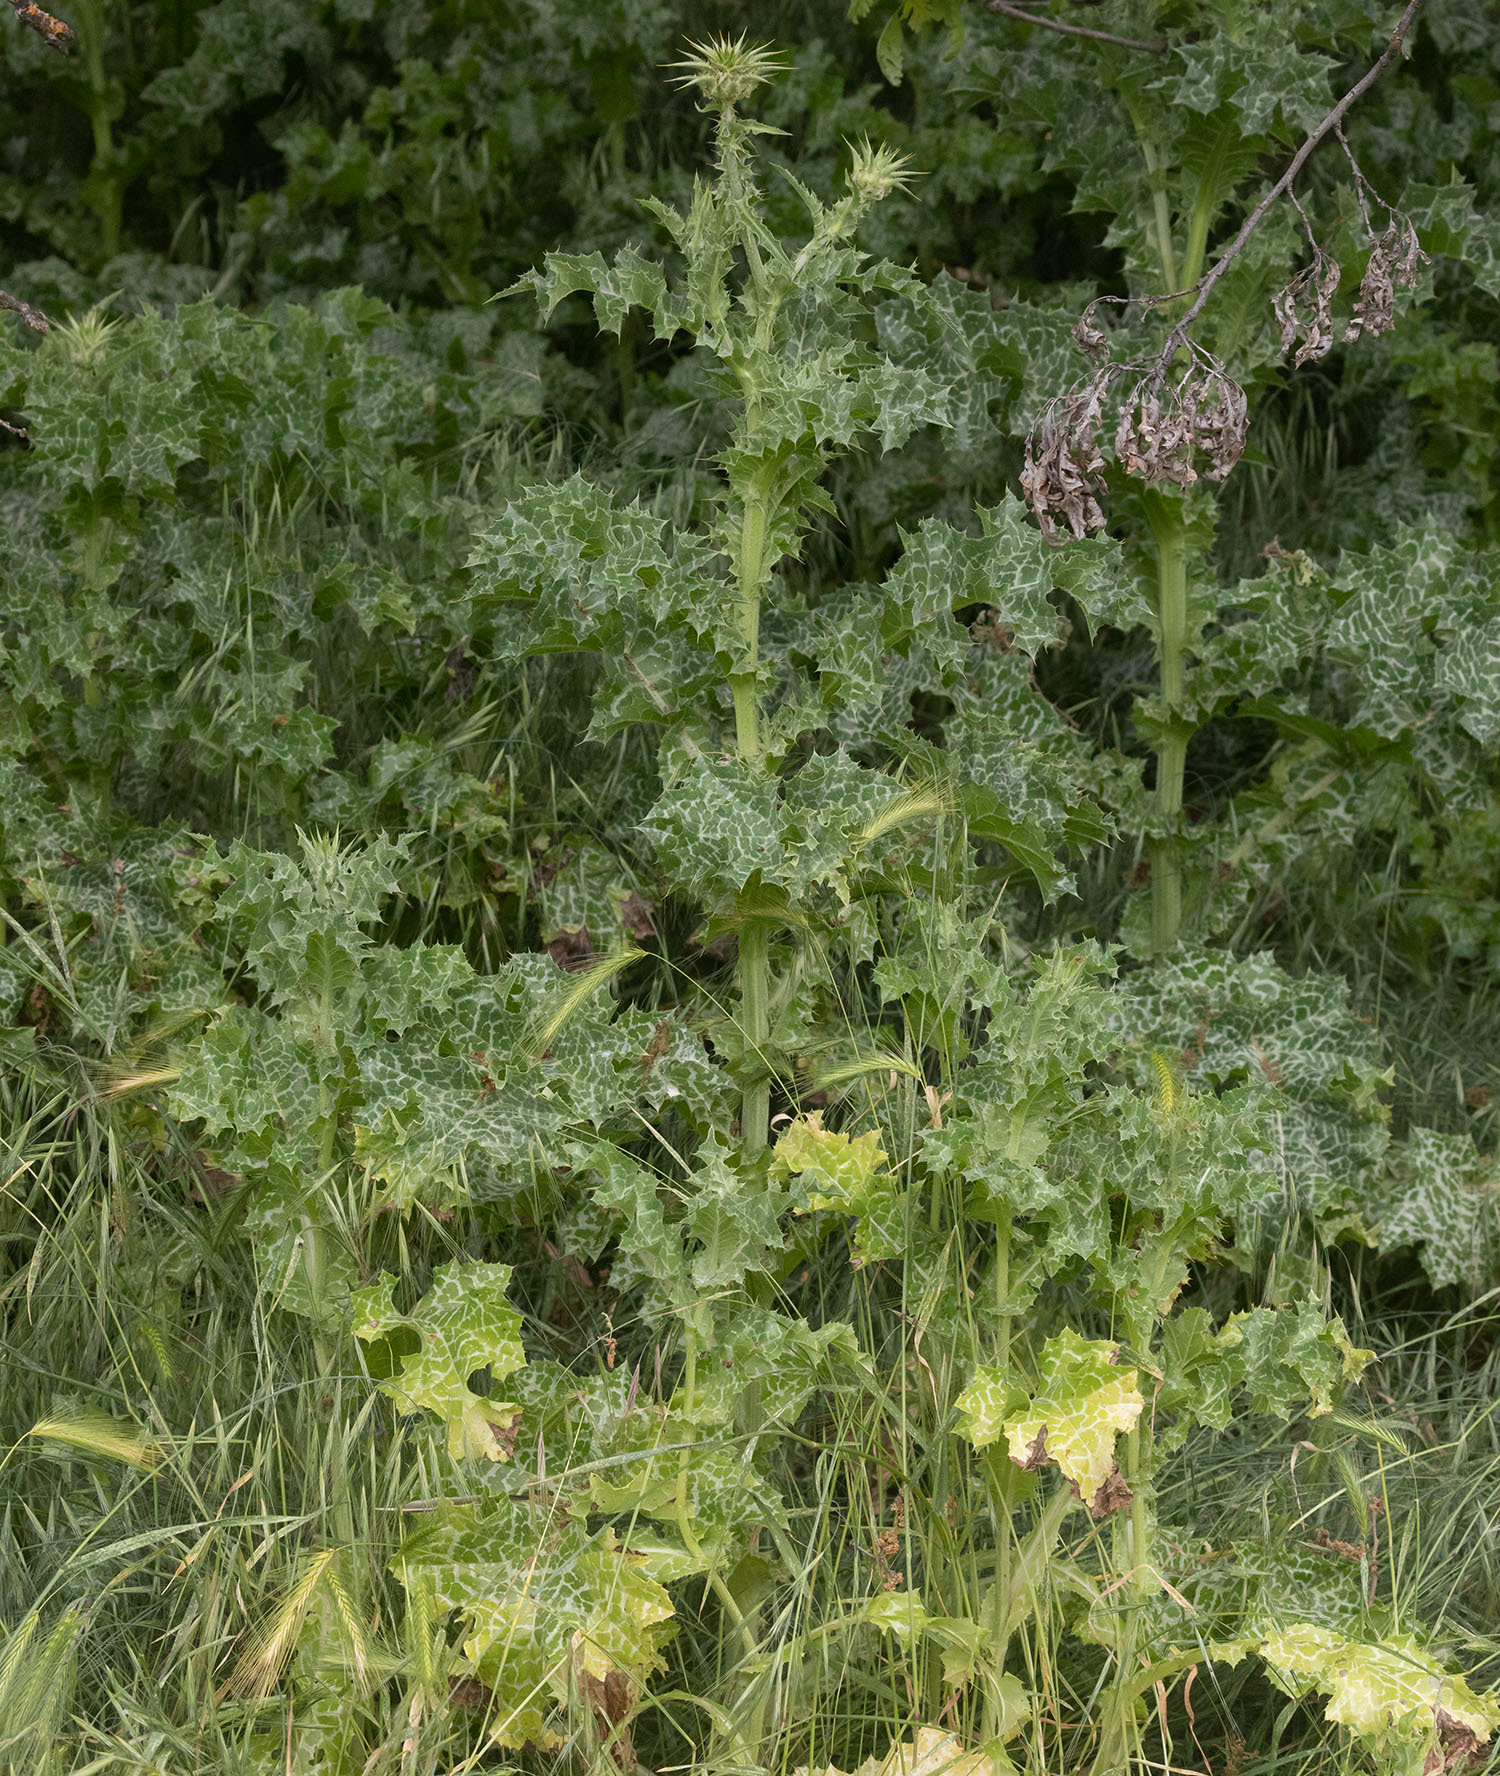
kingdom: Plantae
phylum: Tracheophyta
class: Magnoliopsida
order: Asterales
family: Asteraceae
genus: Silybum
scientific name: Silybum marianum
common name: Milk thistle
